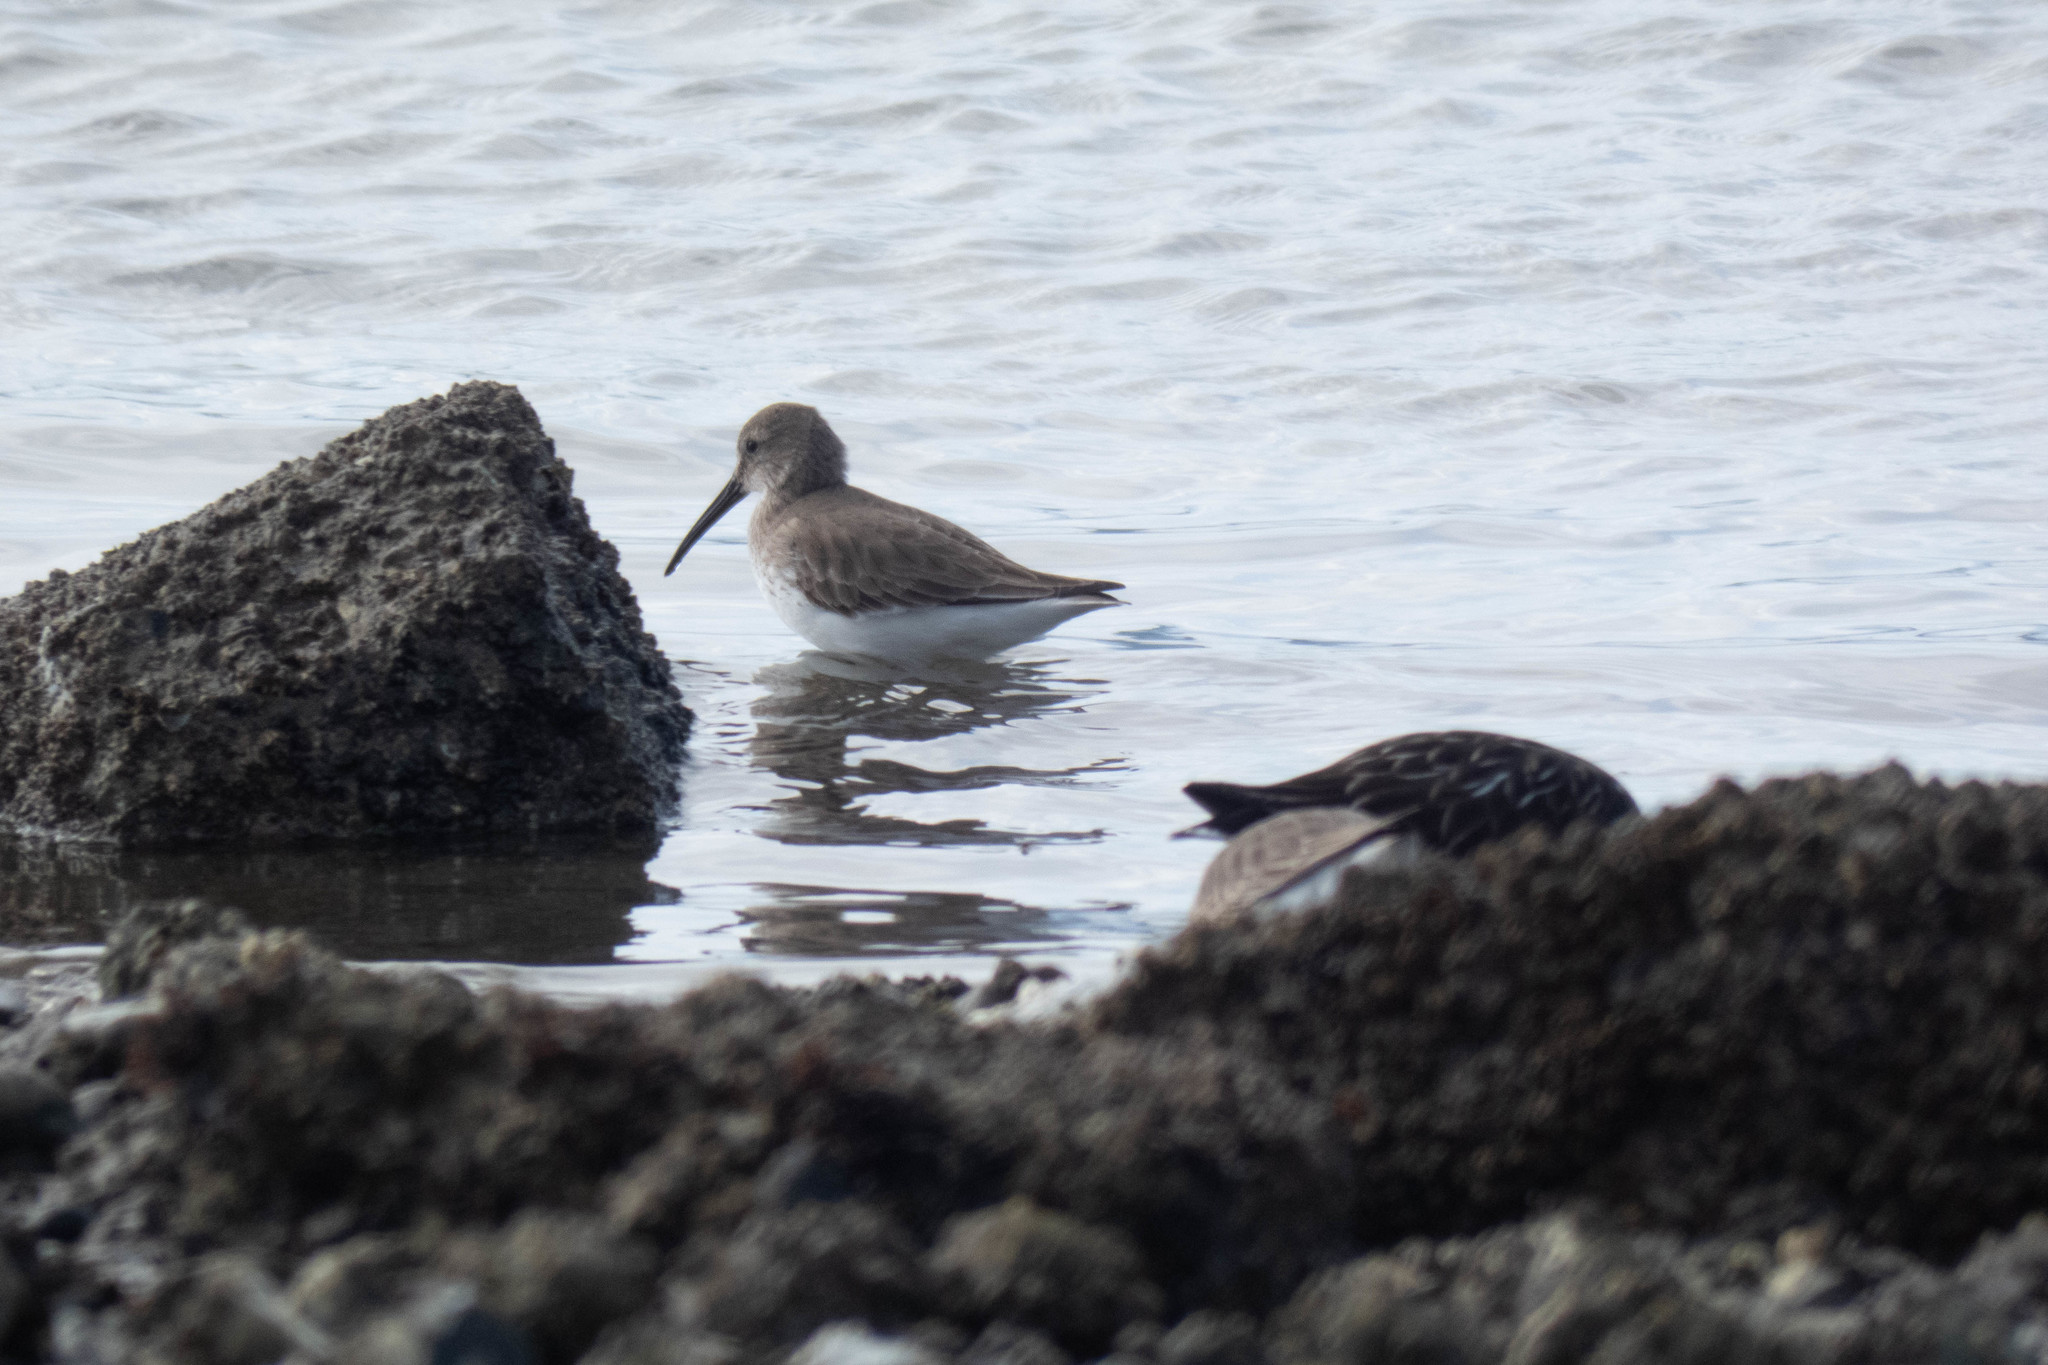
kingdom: Animalia
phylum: Chordata
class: Aves
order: Charadriiformes
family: Scolopacidae
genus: Calidris
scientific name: Calidris alpina
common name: Dunlin
